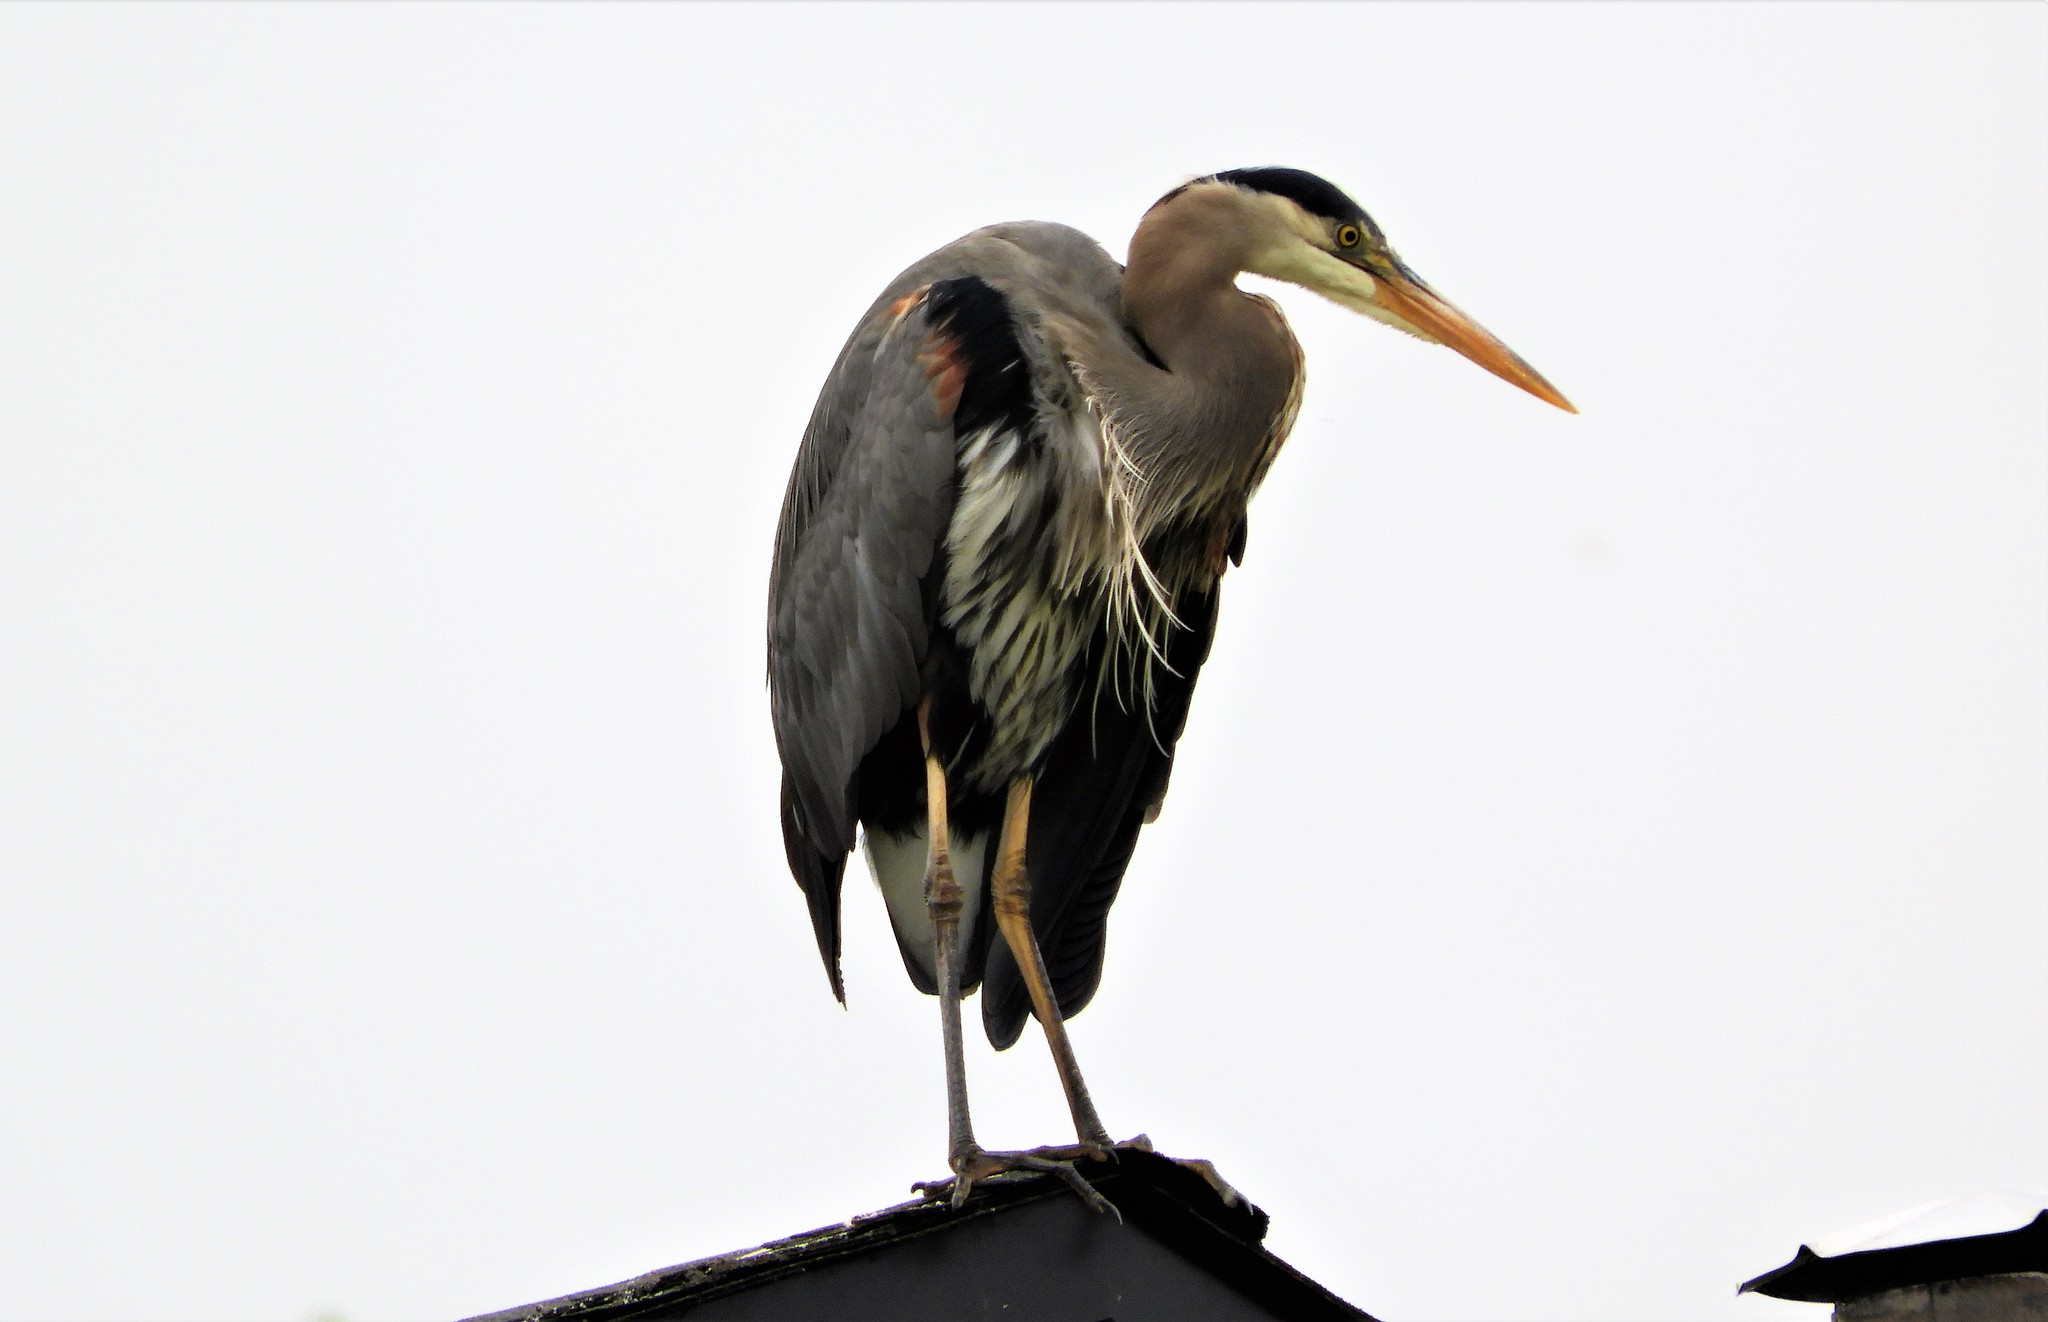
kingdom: Animalia
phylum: Chordata
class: Aves
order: Pelecaniformes
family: Ardeidae
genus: Ardea
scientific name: Ardea herodias
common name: Great blue heron
